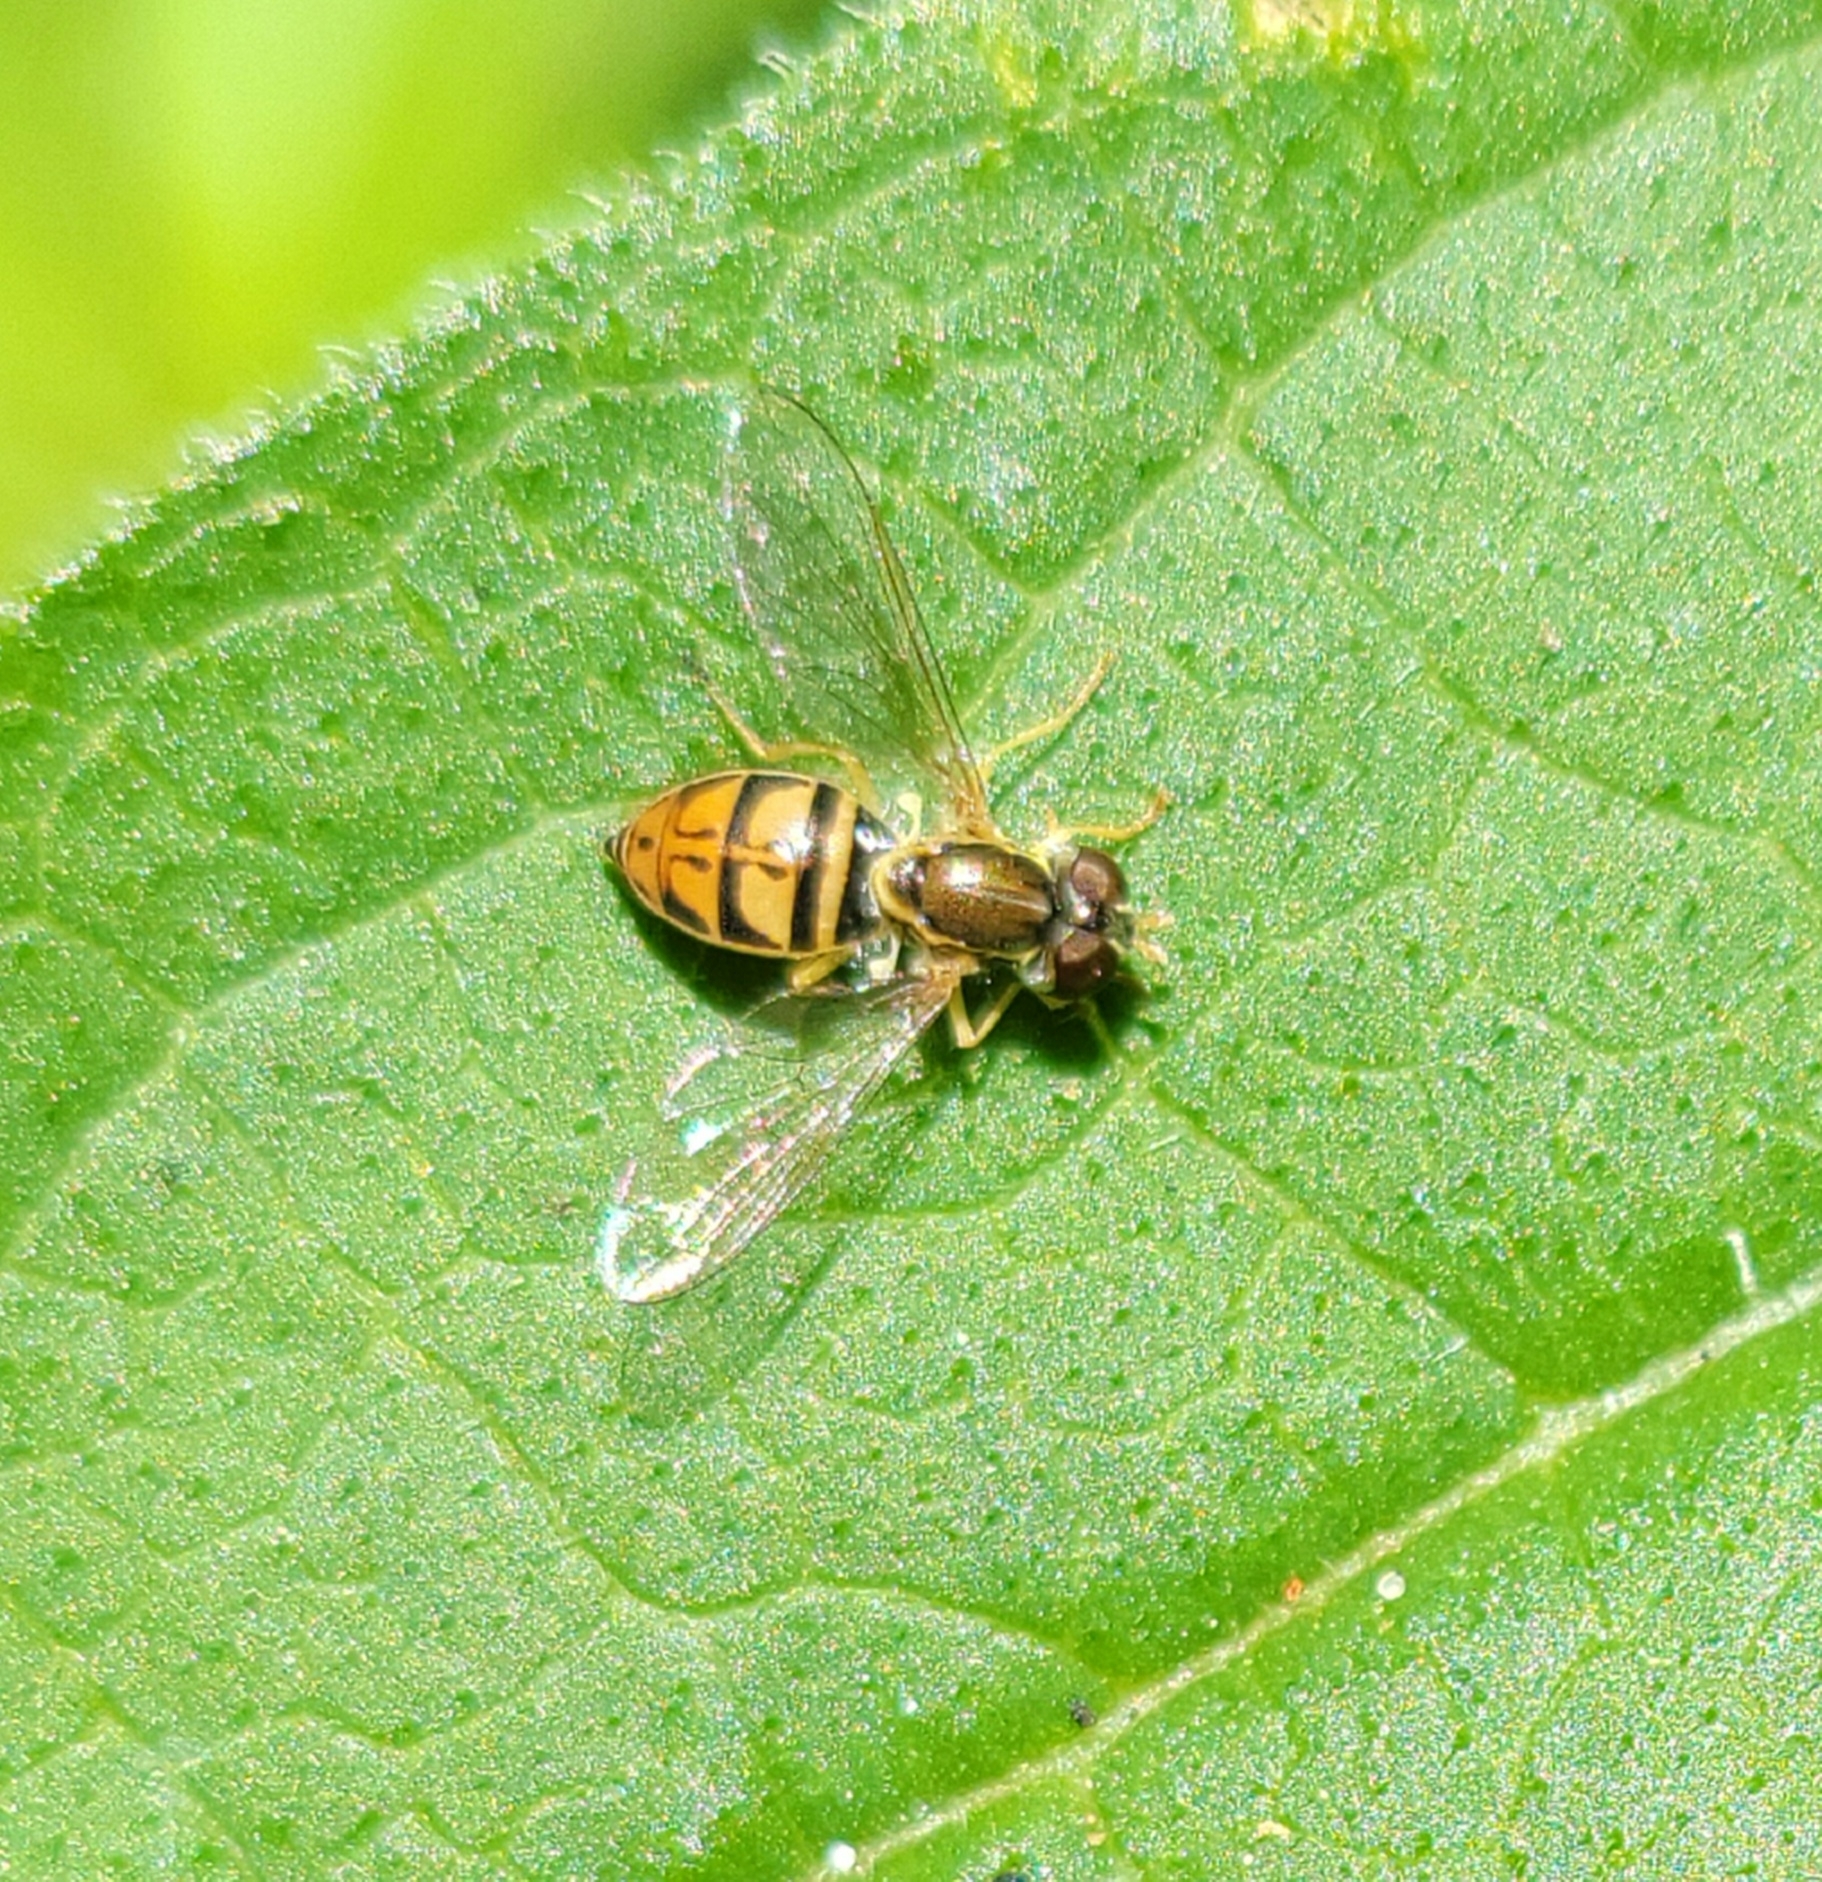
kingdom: Animalia
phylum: Arthropoda
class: Insecta
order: Diptera
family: Syrphidae
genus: Toxomerus
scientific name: Toxomerus marginatus
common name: Syrphid fly
